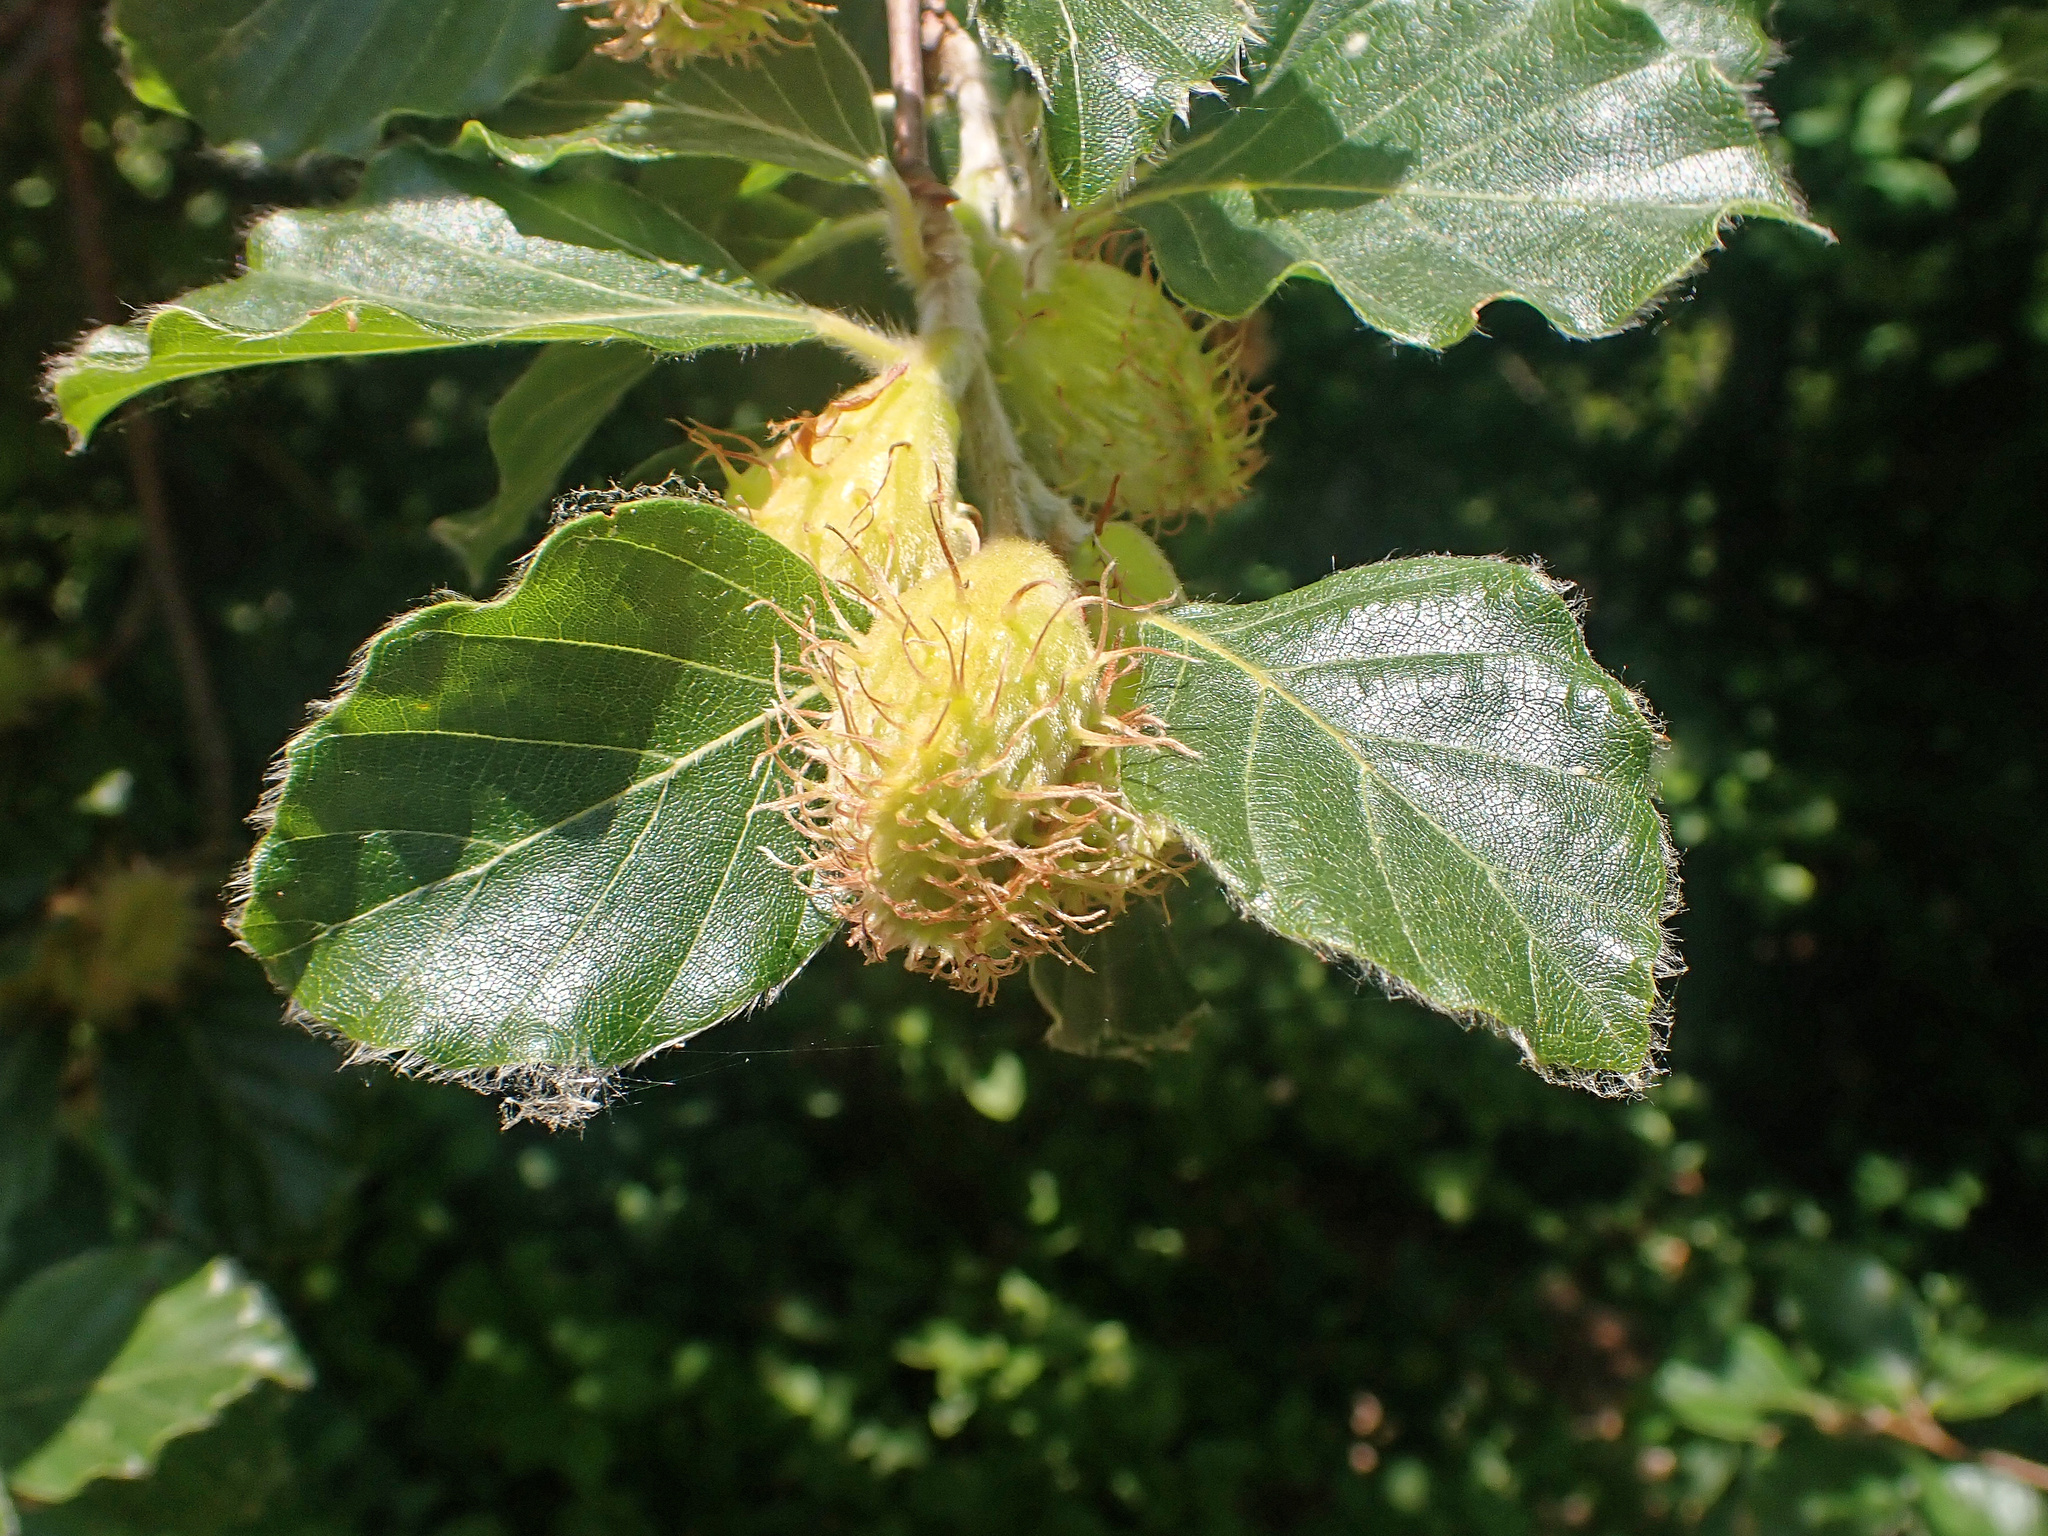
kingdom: Plantae
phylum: Tracheophyta
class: Magnoliopsida
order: Fagales
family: Fagaceae
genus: Fagus
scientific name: Fagus sylvatica
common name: Beech
